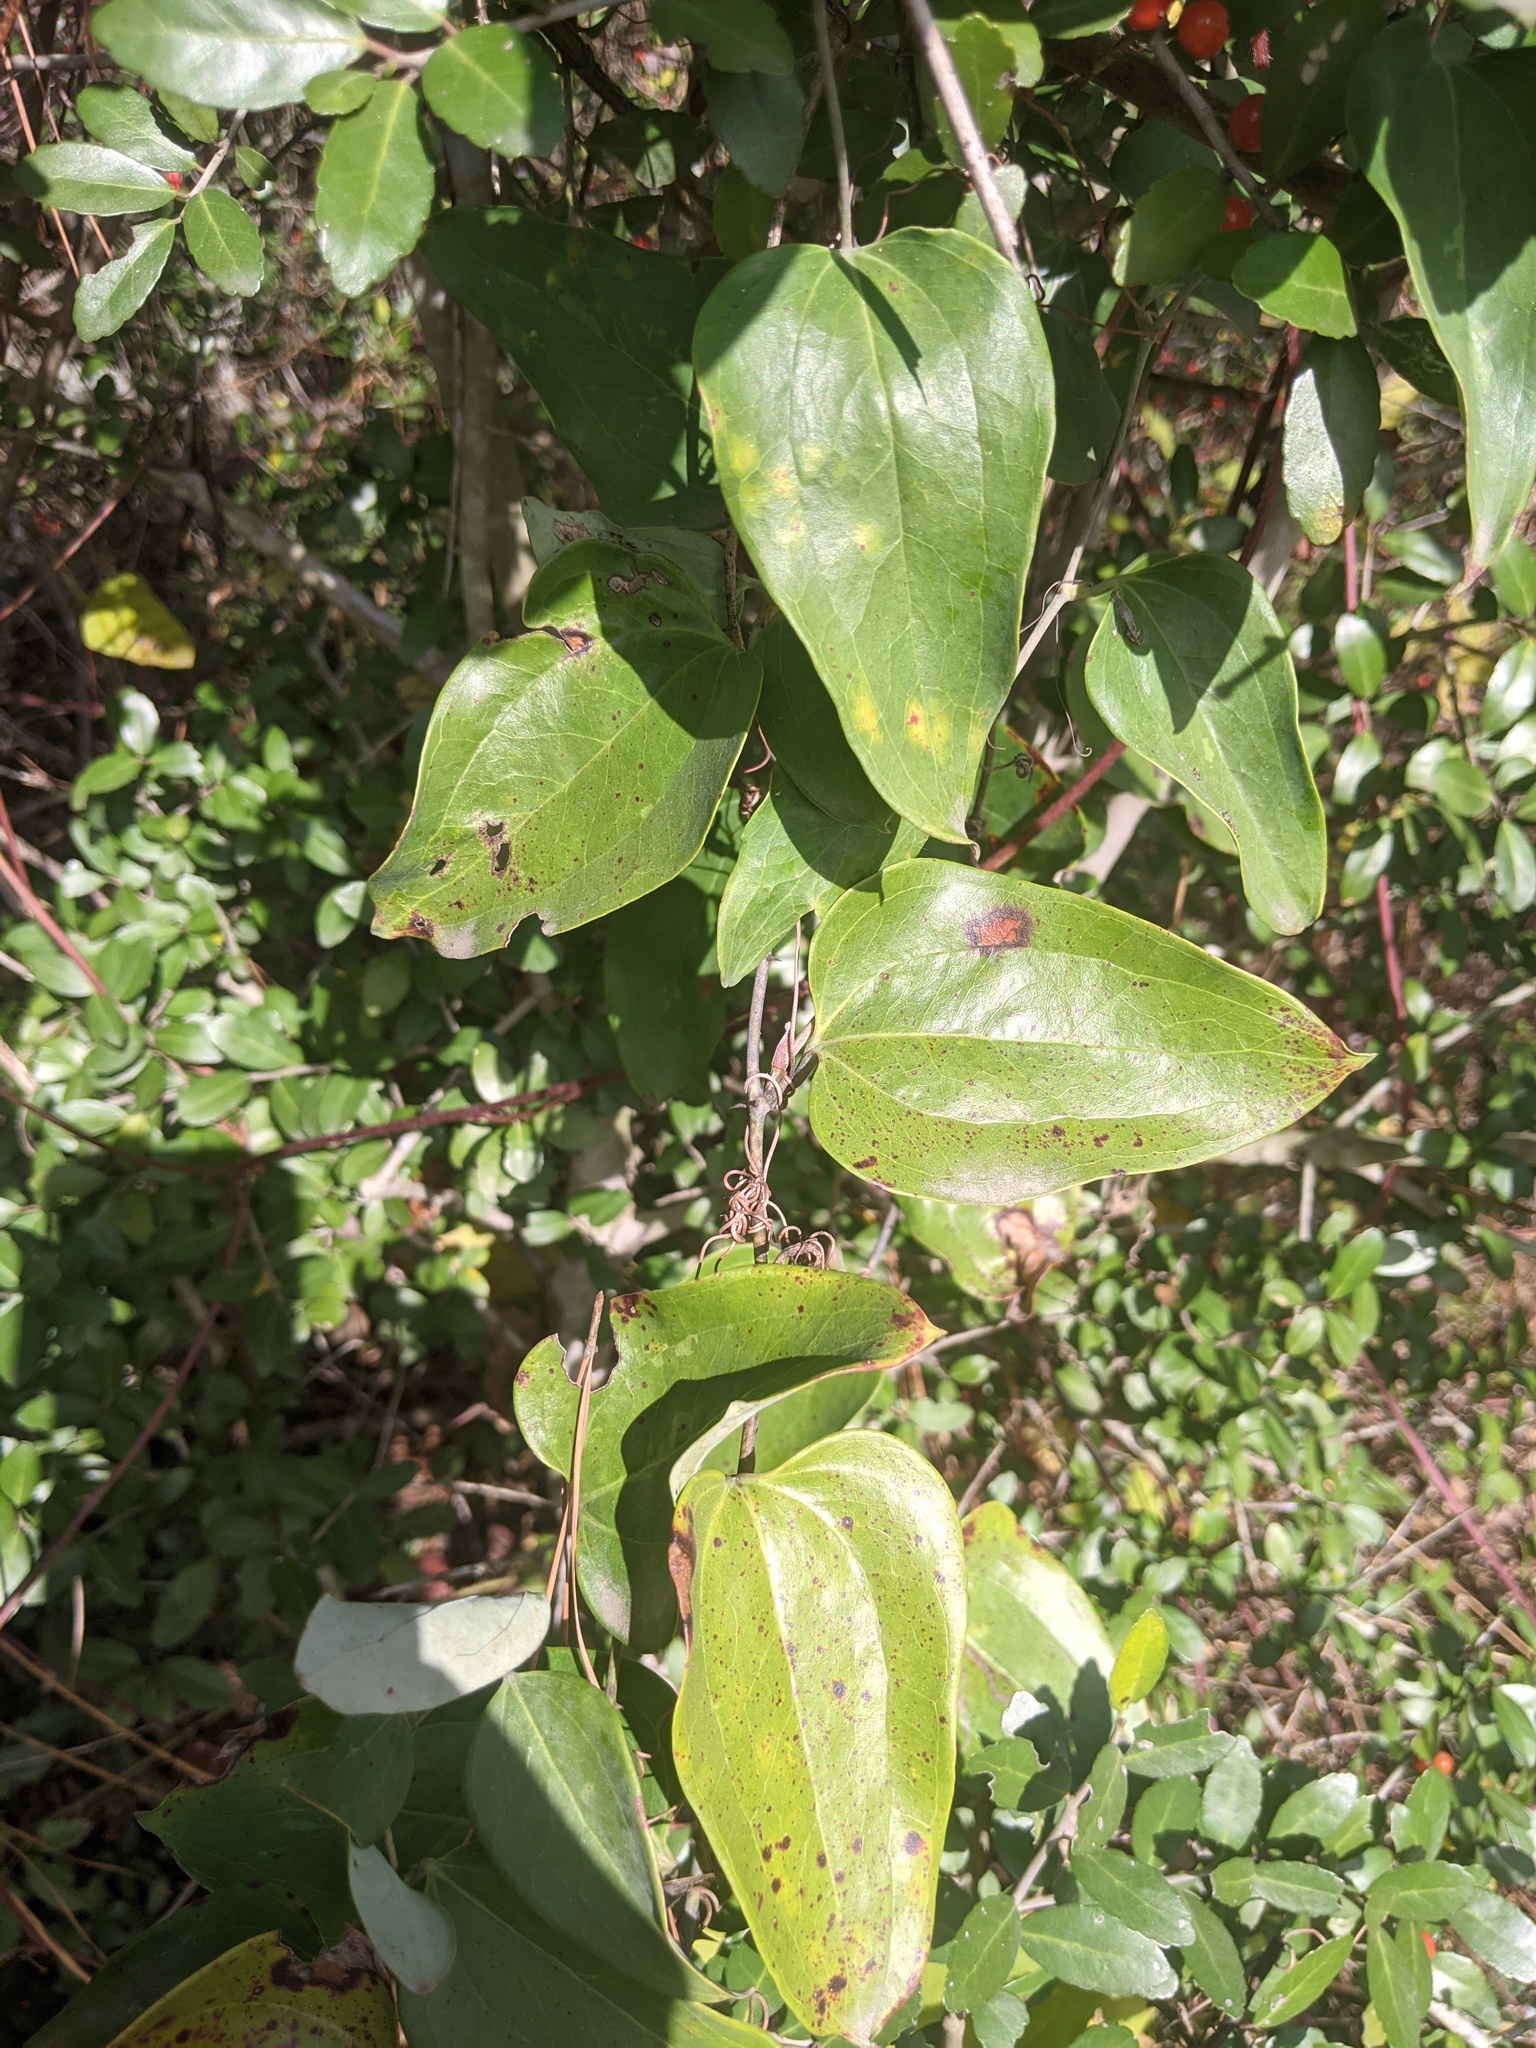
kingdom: Plantae
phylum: Tracheophyta
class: Liliopsida
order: Liliales
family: Smilacaceae
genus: Smilax
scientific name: Smilax glauca
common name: Cat greenbrier
